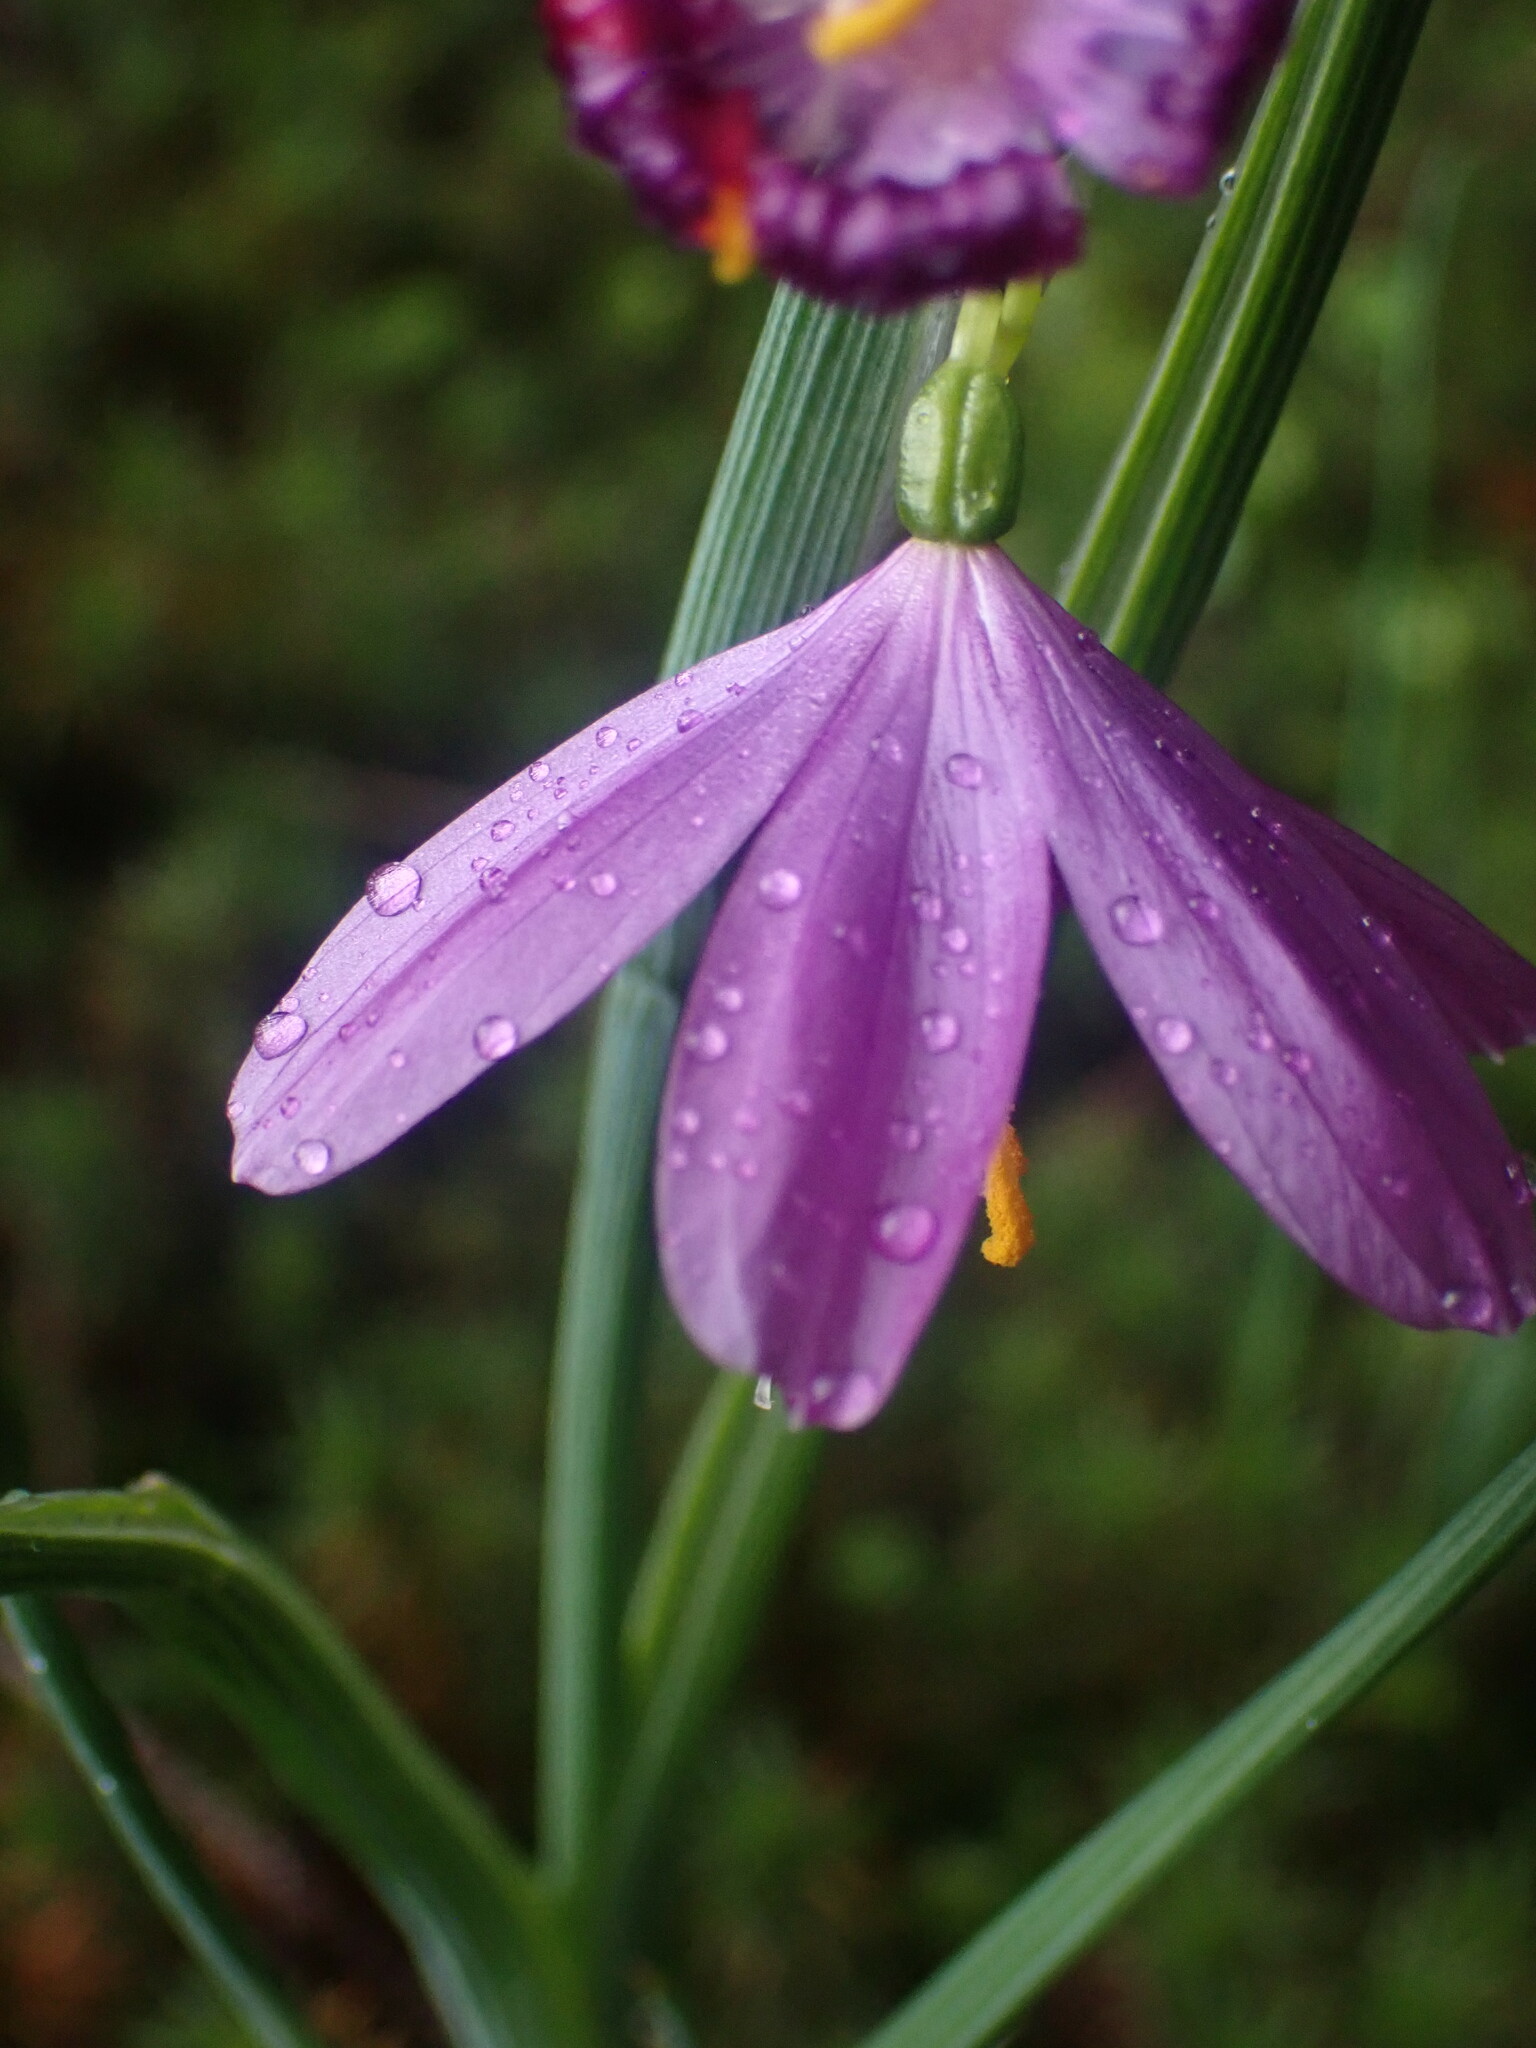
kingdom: Plantae
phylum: Tracheophyta
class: Liliopsida
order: Asparagales
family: Iridaceae
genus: Olsynium
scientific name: Olsynium douglasii
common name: Douglas' grasswidow
